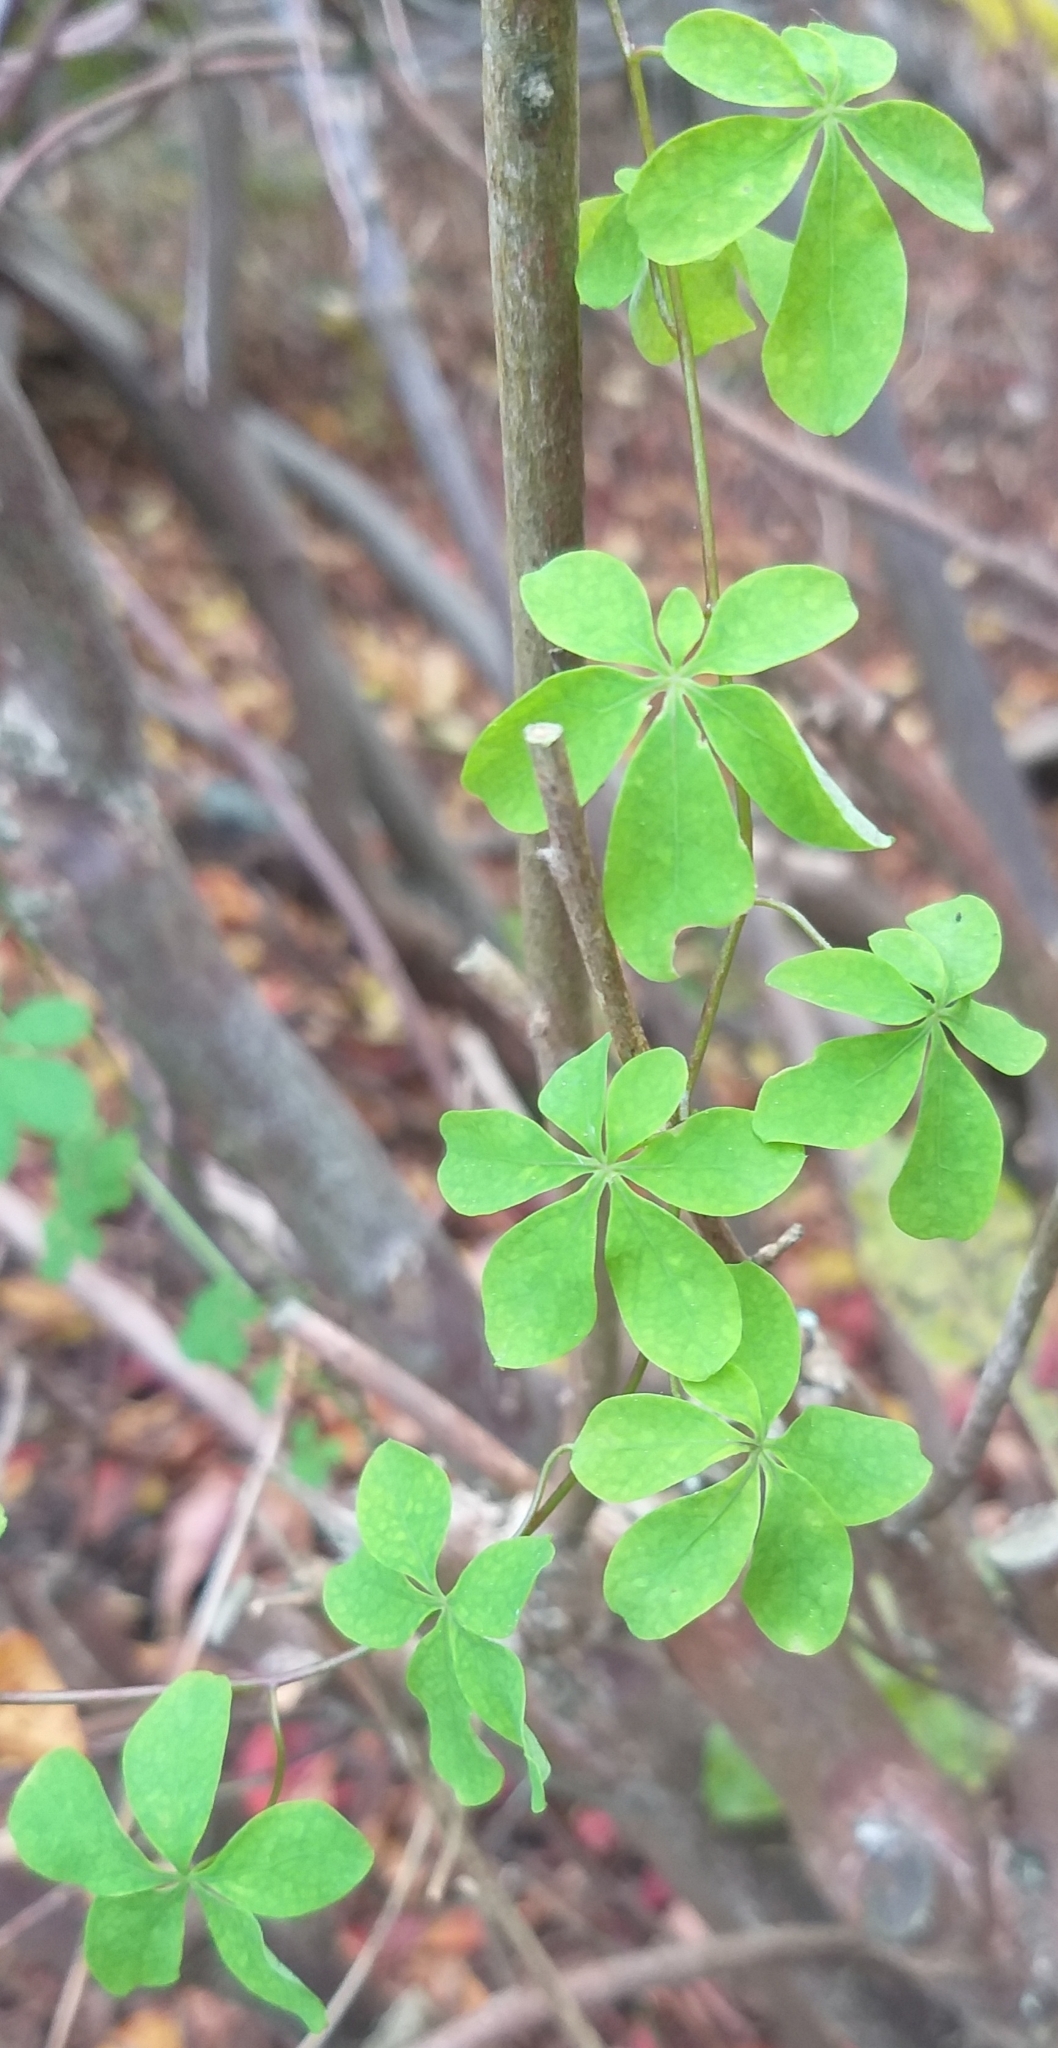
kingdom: Plantae
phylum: Tracheophyta
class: Magnoliopsida
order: Brassicales
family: Tropaeolaceae
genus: Tropaeolum
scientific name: Tropaeolum speciosum
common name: Flame nasturtium
